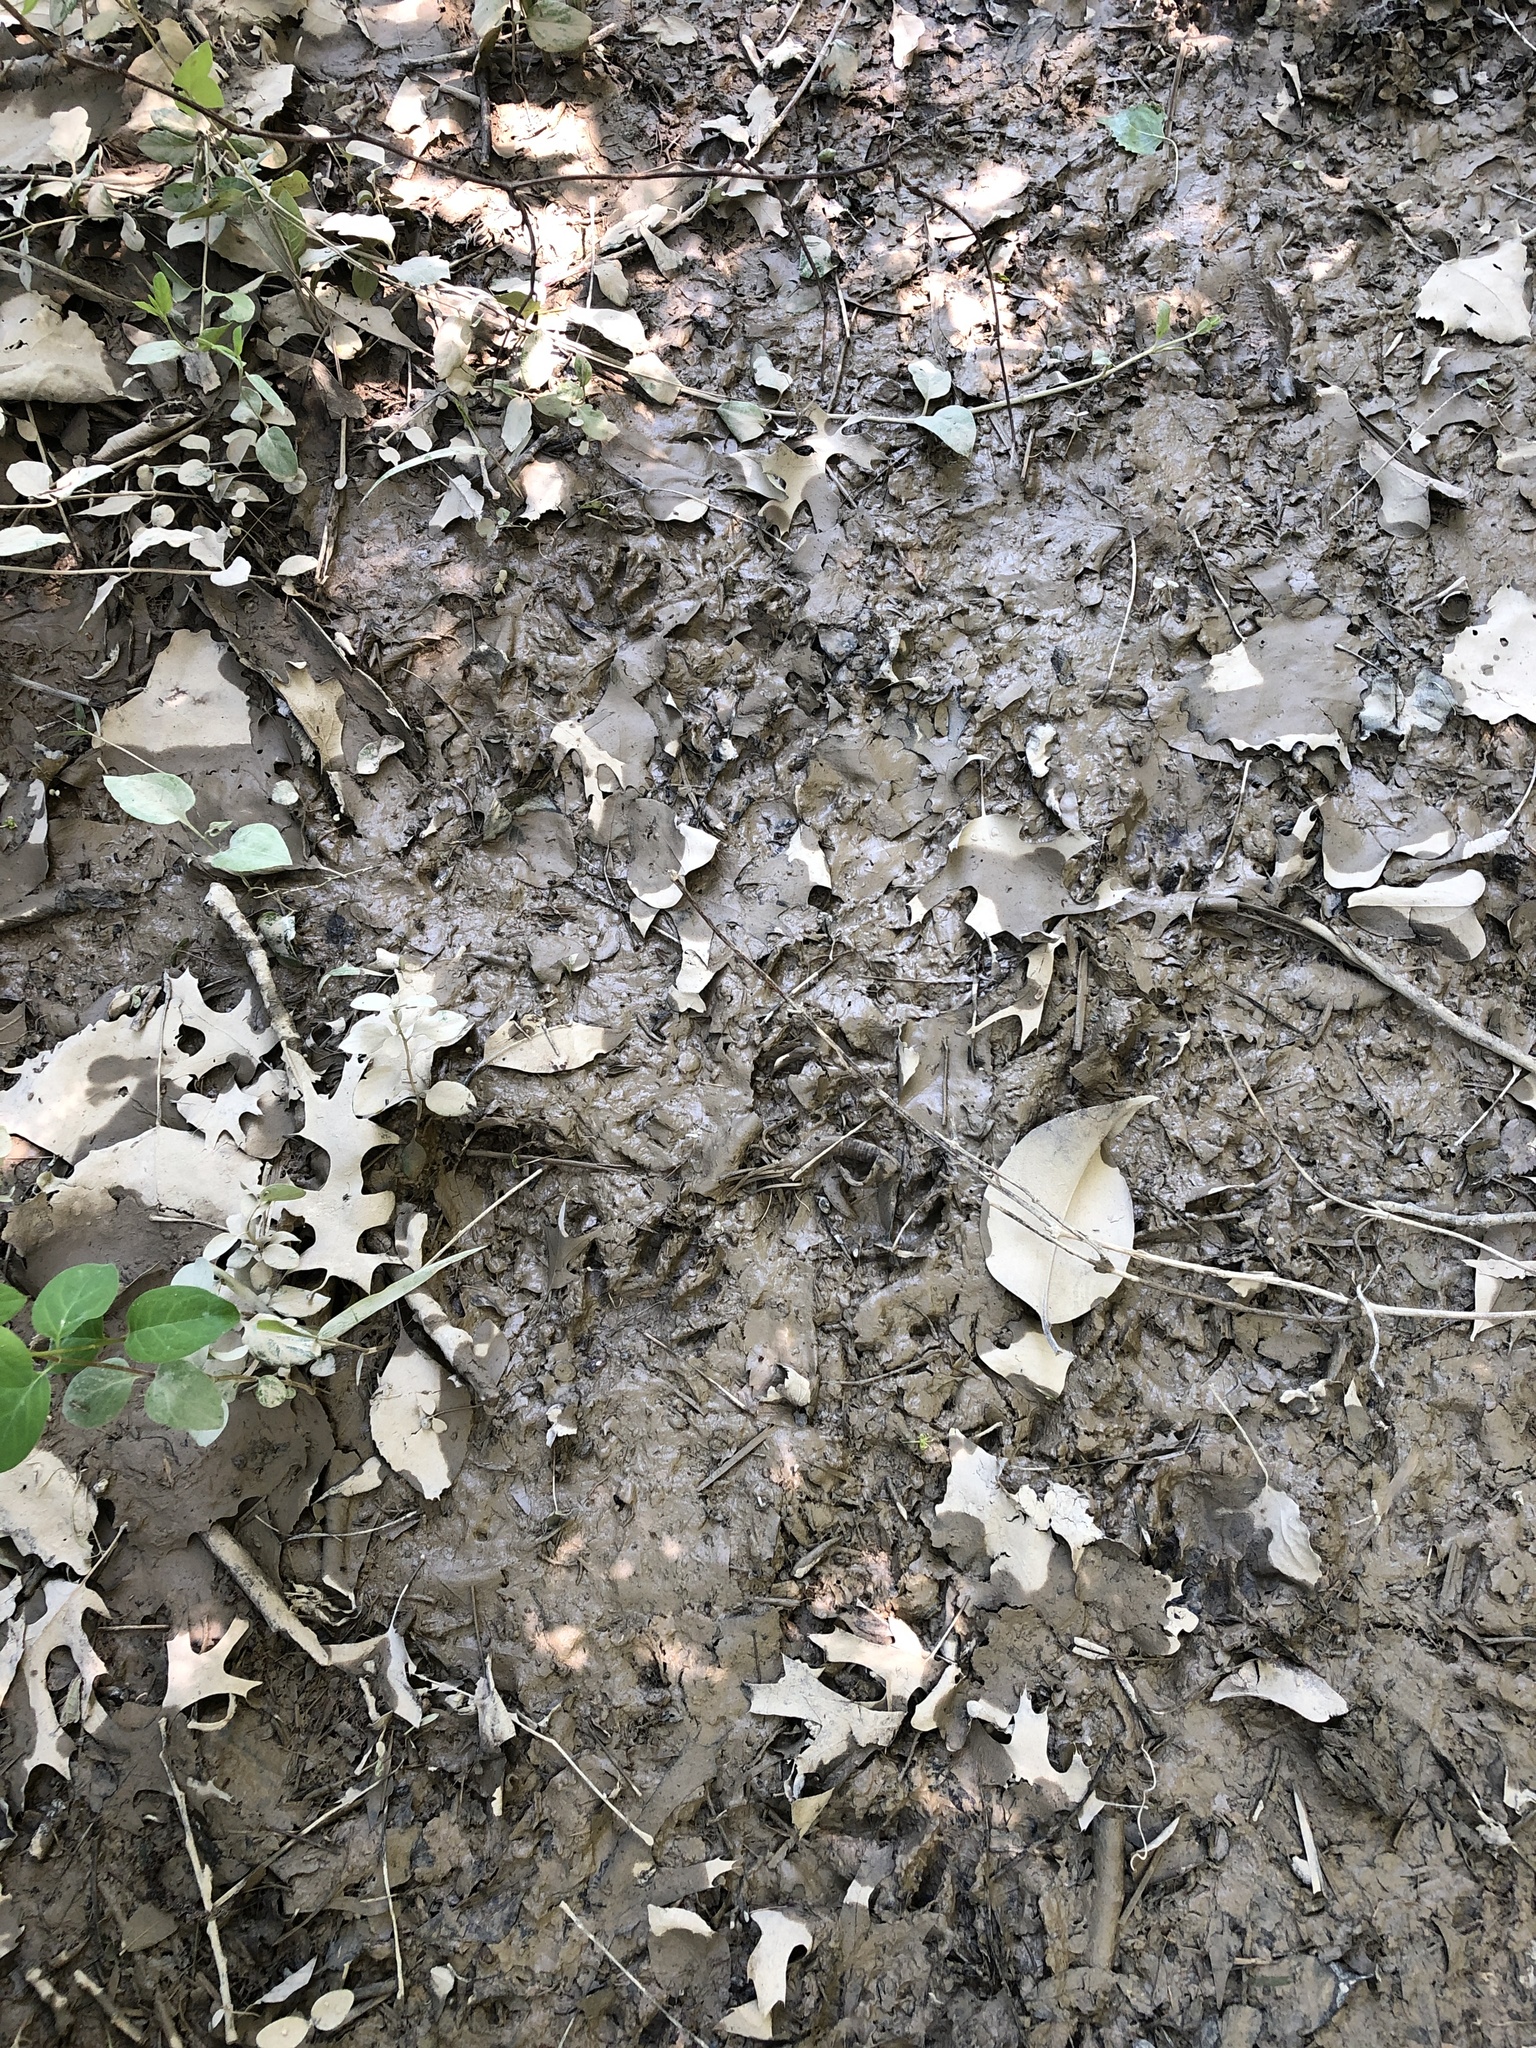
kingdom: Animalia
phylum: Chordata
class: Mammalia
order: Carnivora
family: Procyonidae
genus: Procyon
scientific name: Procyon lotor
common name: Raccoon
